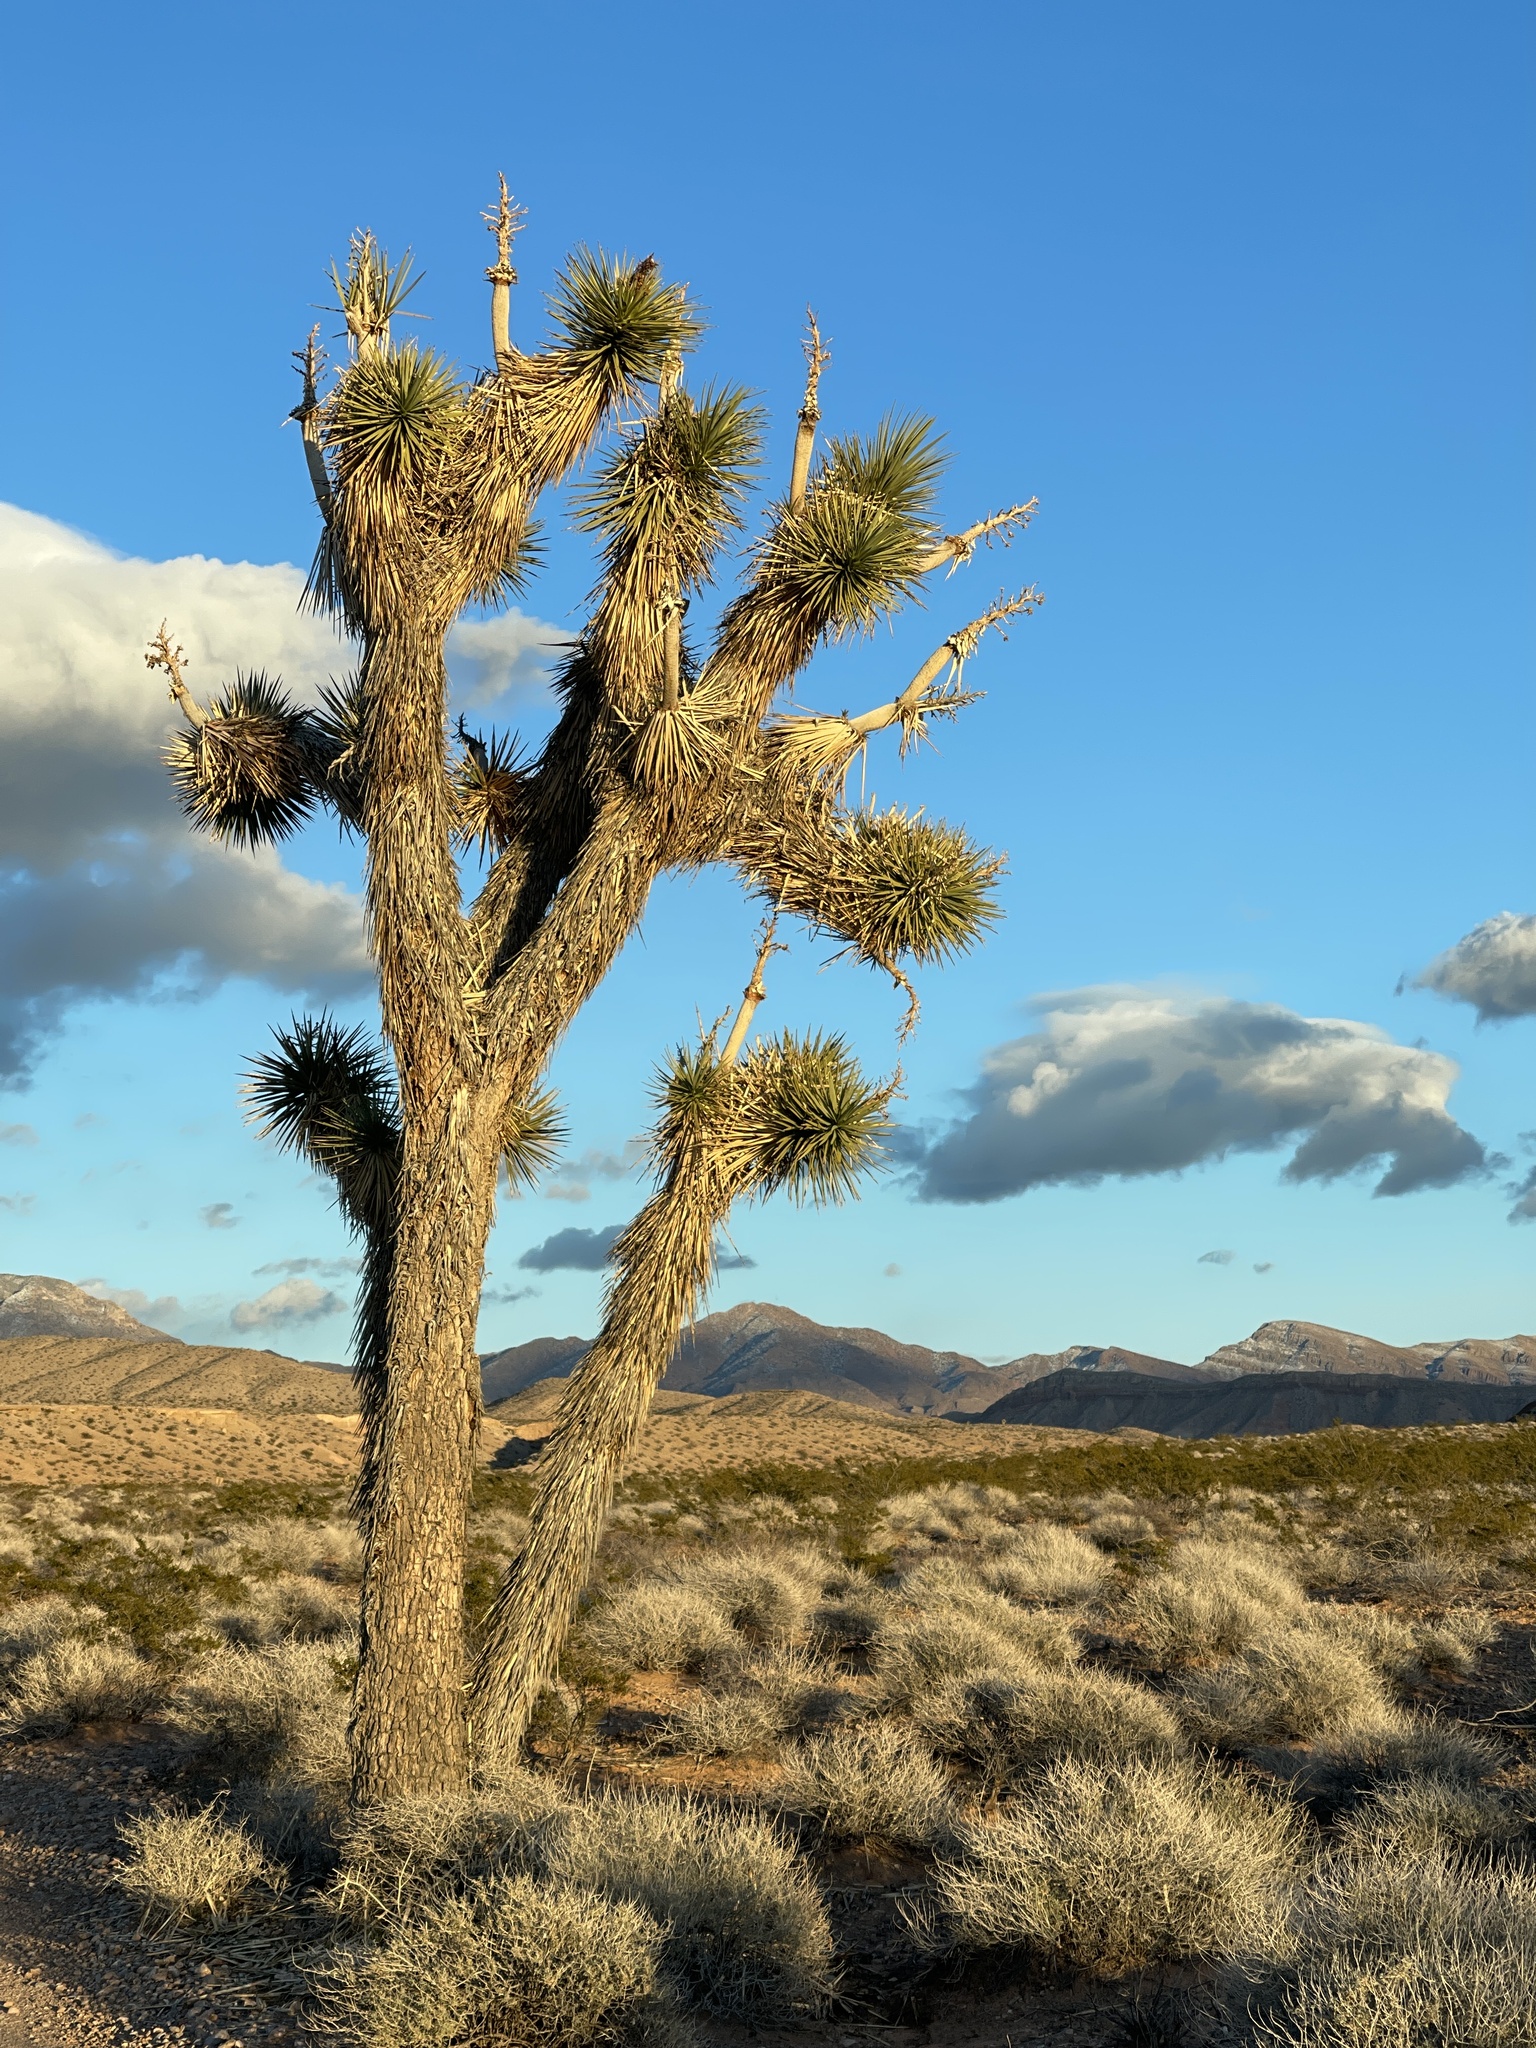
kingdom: Plantae
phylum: Tracheophyta
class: Liliopsida
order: Asparagales
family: Asparagaceae
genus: Yucca
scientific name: Yucca brevifolia
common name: Joshua tree
